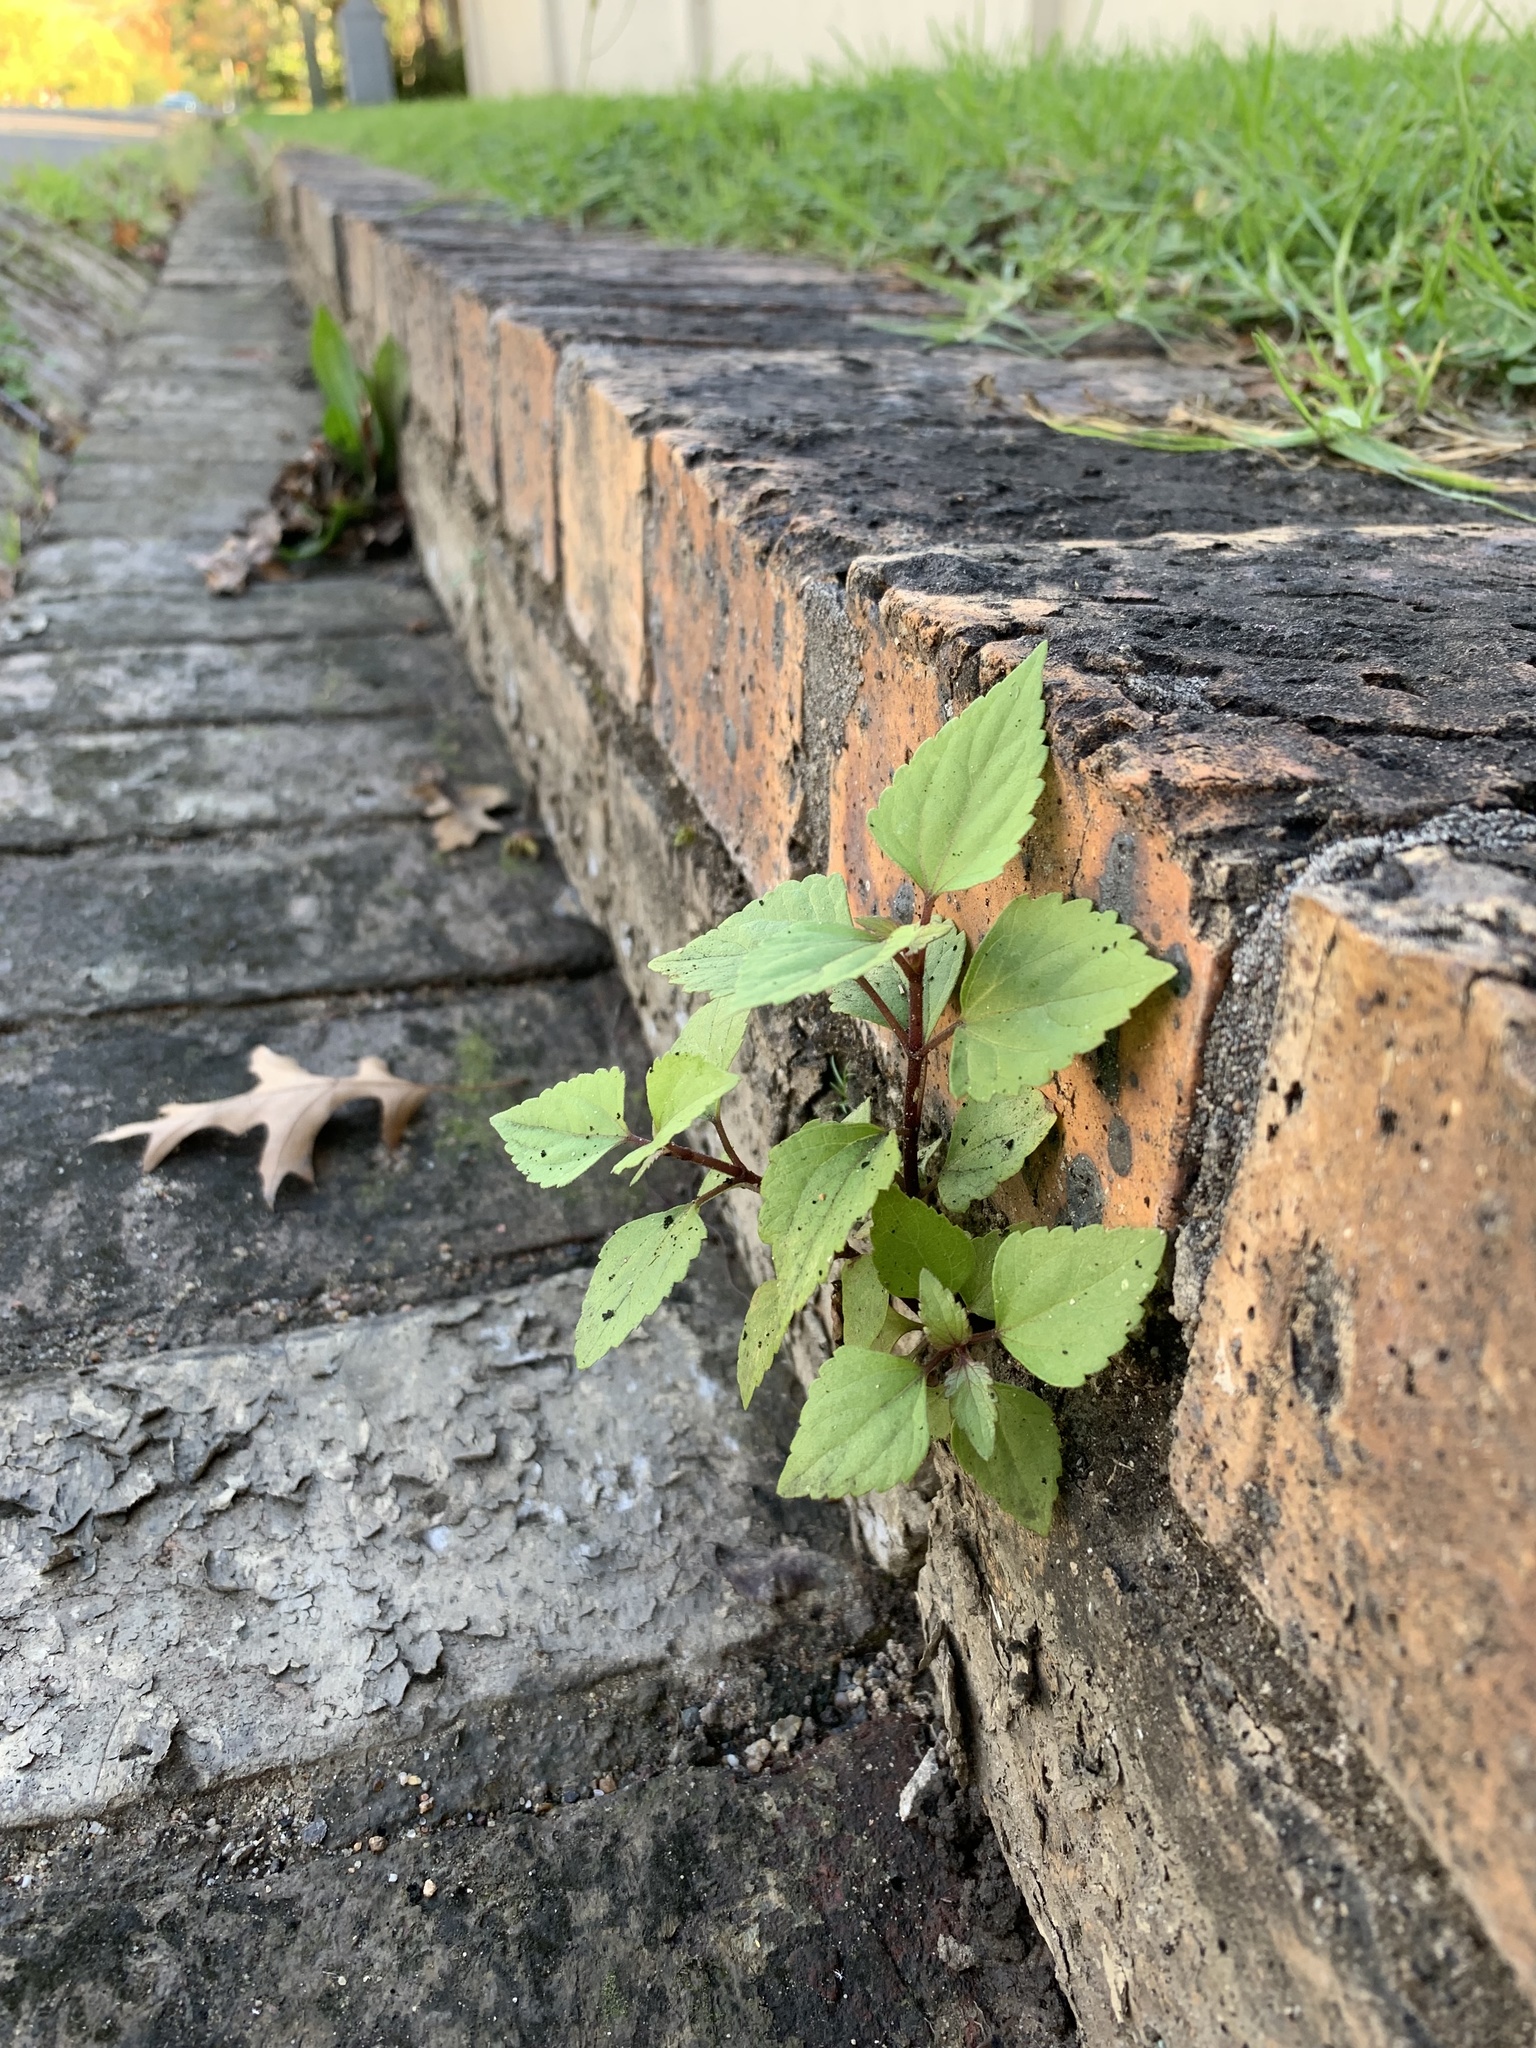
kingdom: Plantae
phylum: Tracheophyta
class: Magnoliopsida
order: Asterales
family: Asteraceae
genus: Ageratina
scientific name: Ageratina adenophora
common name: Sticky snakeroot
